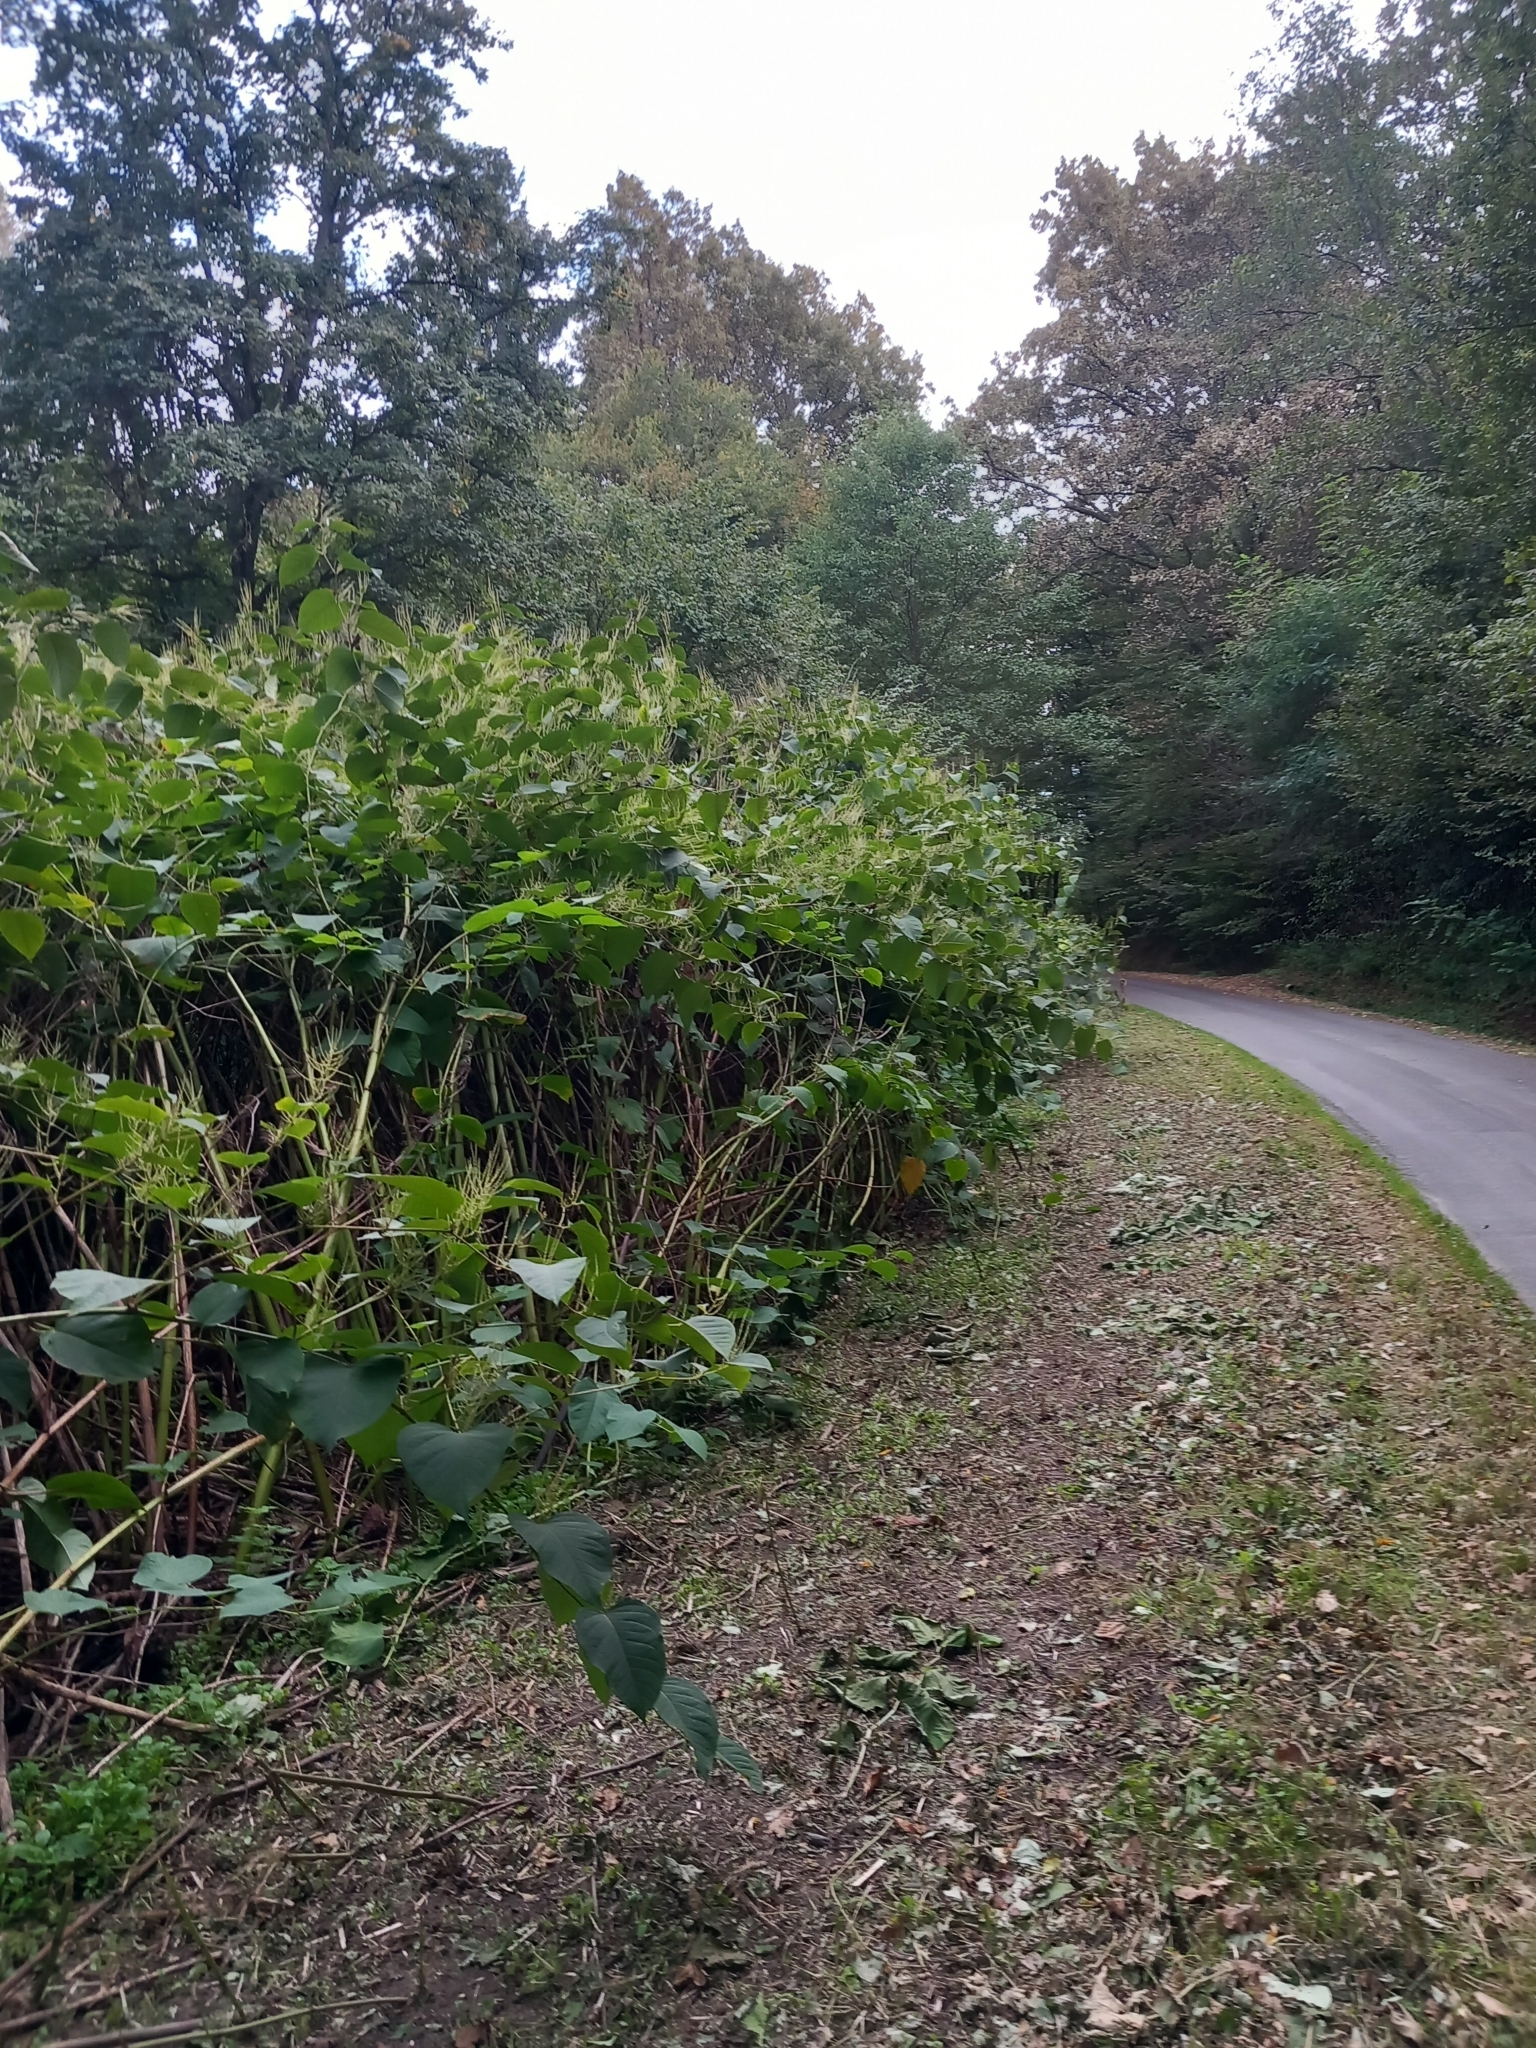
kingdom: Animalia
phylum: Chordata
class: Amphibia
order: Anura
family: Hylidae
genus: Hyla
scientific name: Hyla arborea
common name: Common tree frog
